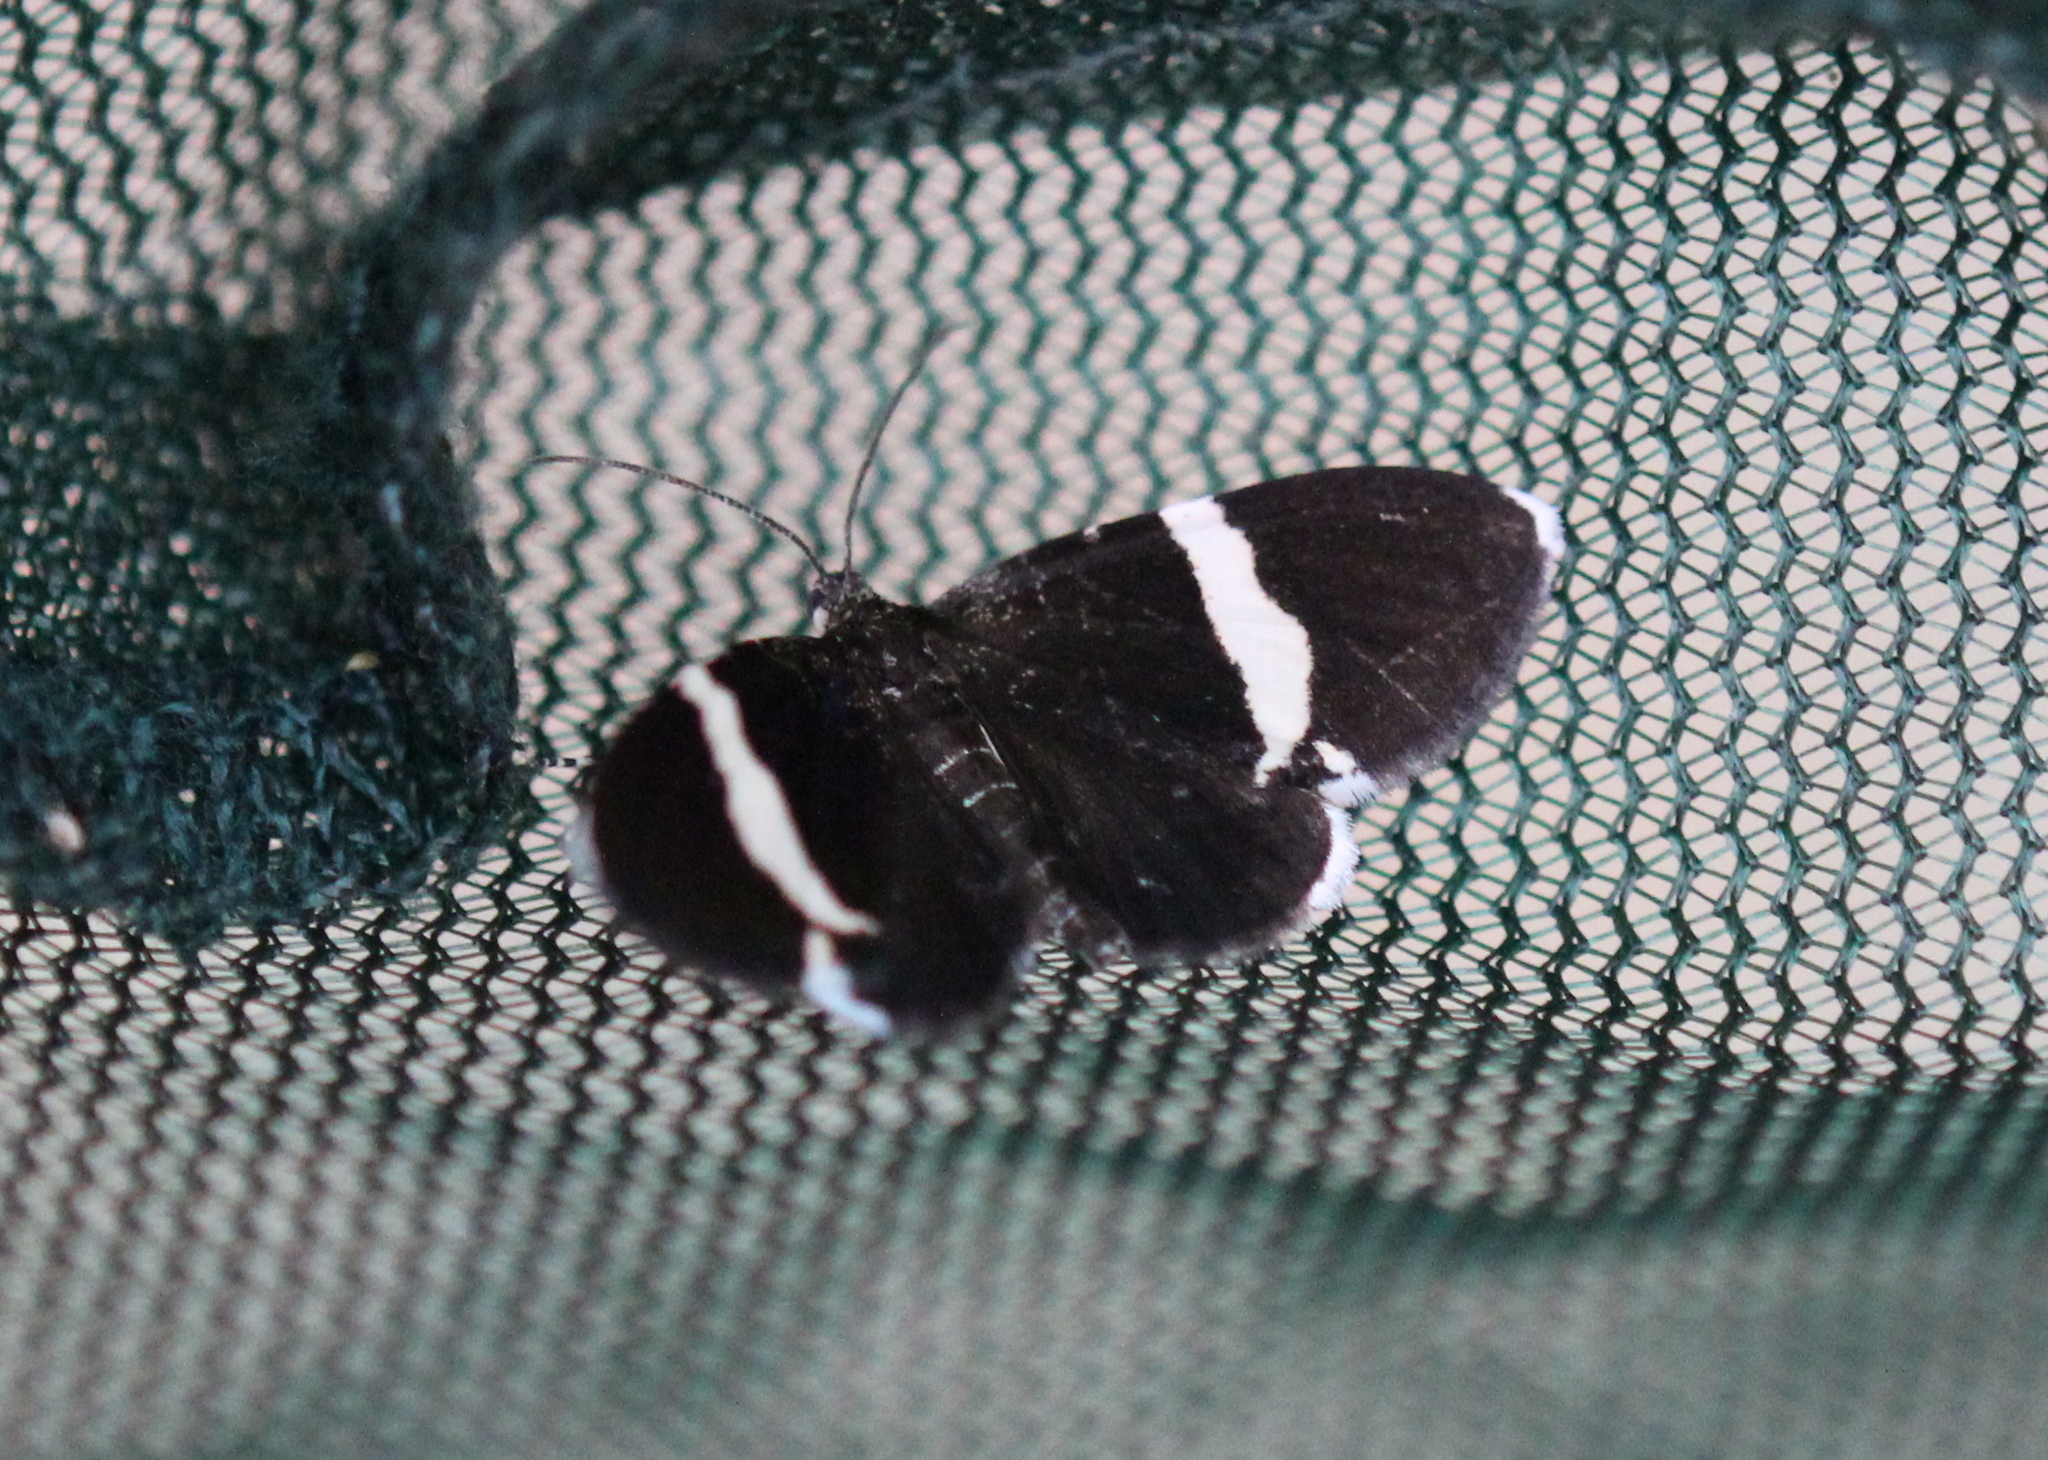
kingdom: Animalia
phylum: Arthropoda
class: Insecta
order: Lepidoptera
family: Geometridae
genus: Trichodezia
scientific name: Trichodezia albovittata
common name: White striped black
